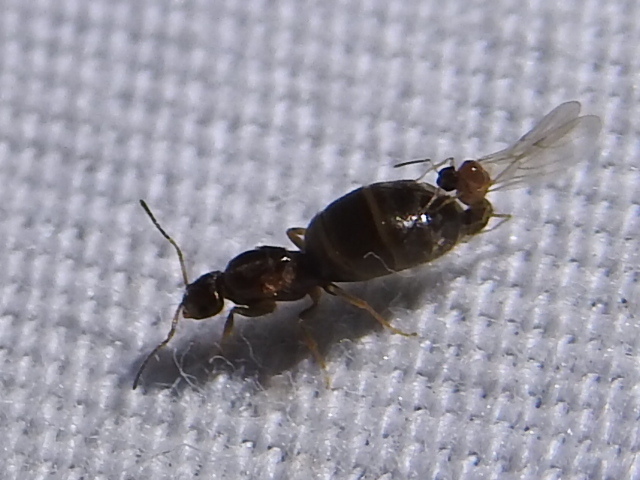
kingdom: Animalia
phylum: Arthropoda
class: Insecta
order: Hymenoptera
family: Formicidae
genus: Brachymyrmex
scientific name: Brachymyrmex patagonicus
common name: Dark rover ant
